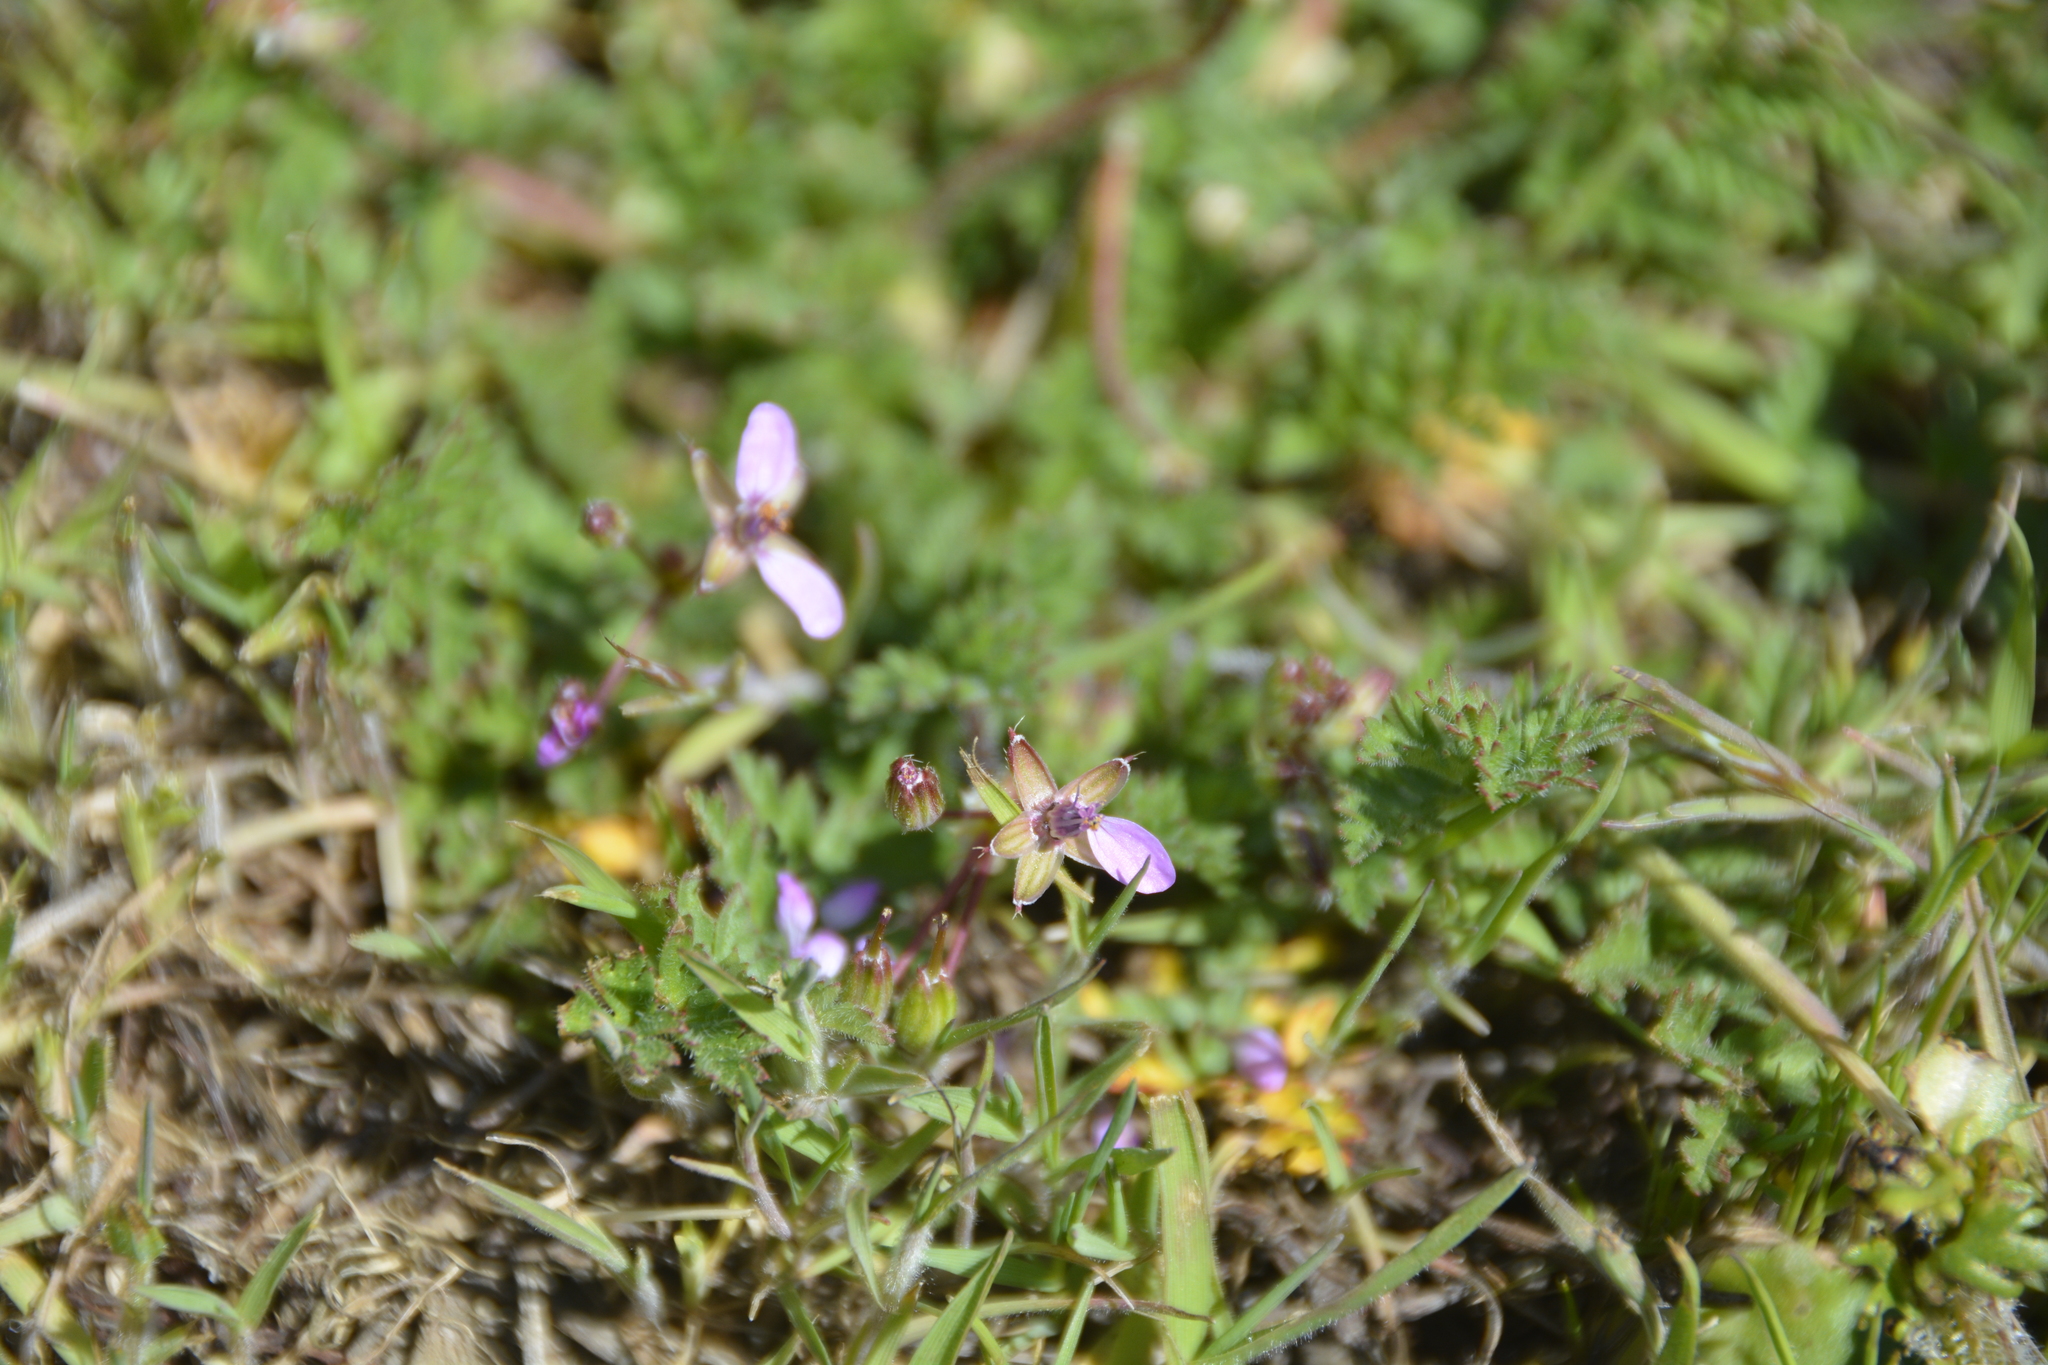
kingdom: Plantae
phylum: Tracheophyta
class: Magnoliopsida
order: Geraniales
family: Geraniaceae
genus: Erodium
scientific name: Erodium cicutarium
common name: Common stork's-bill
